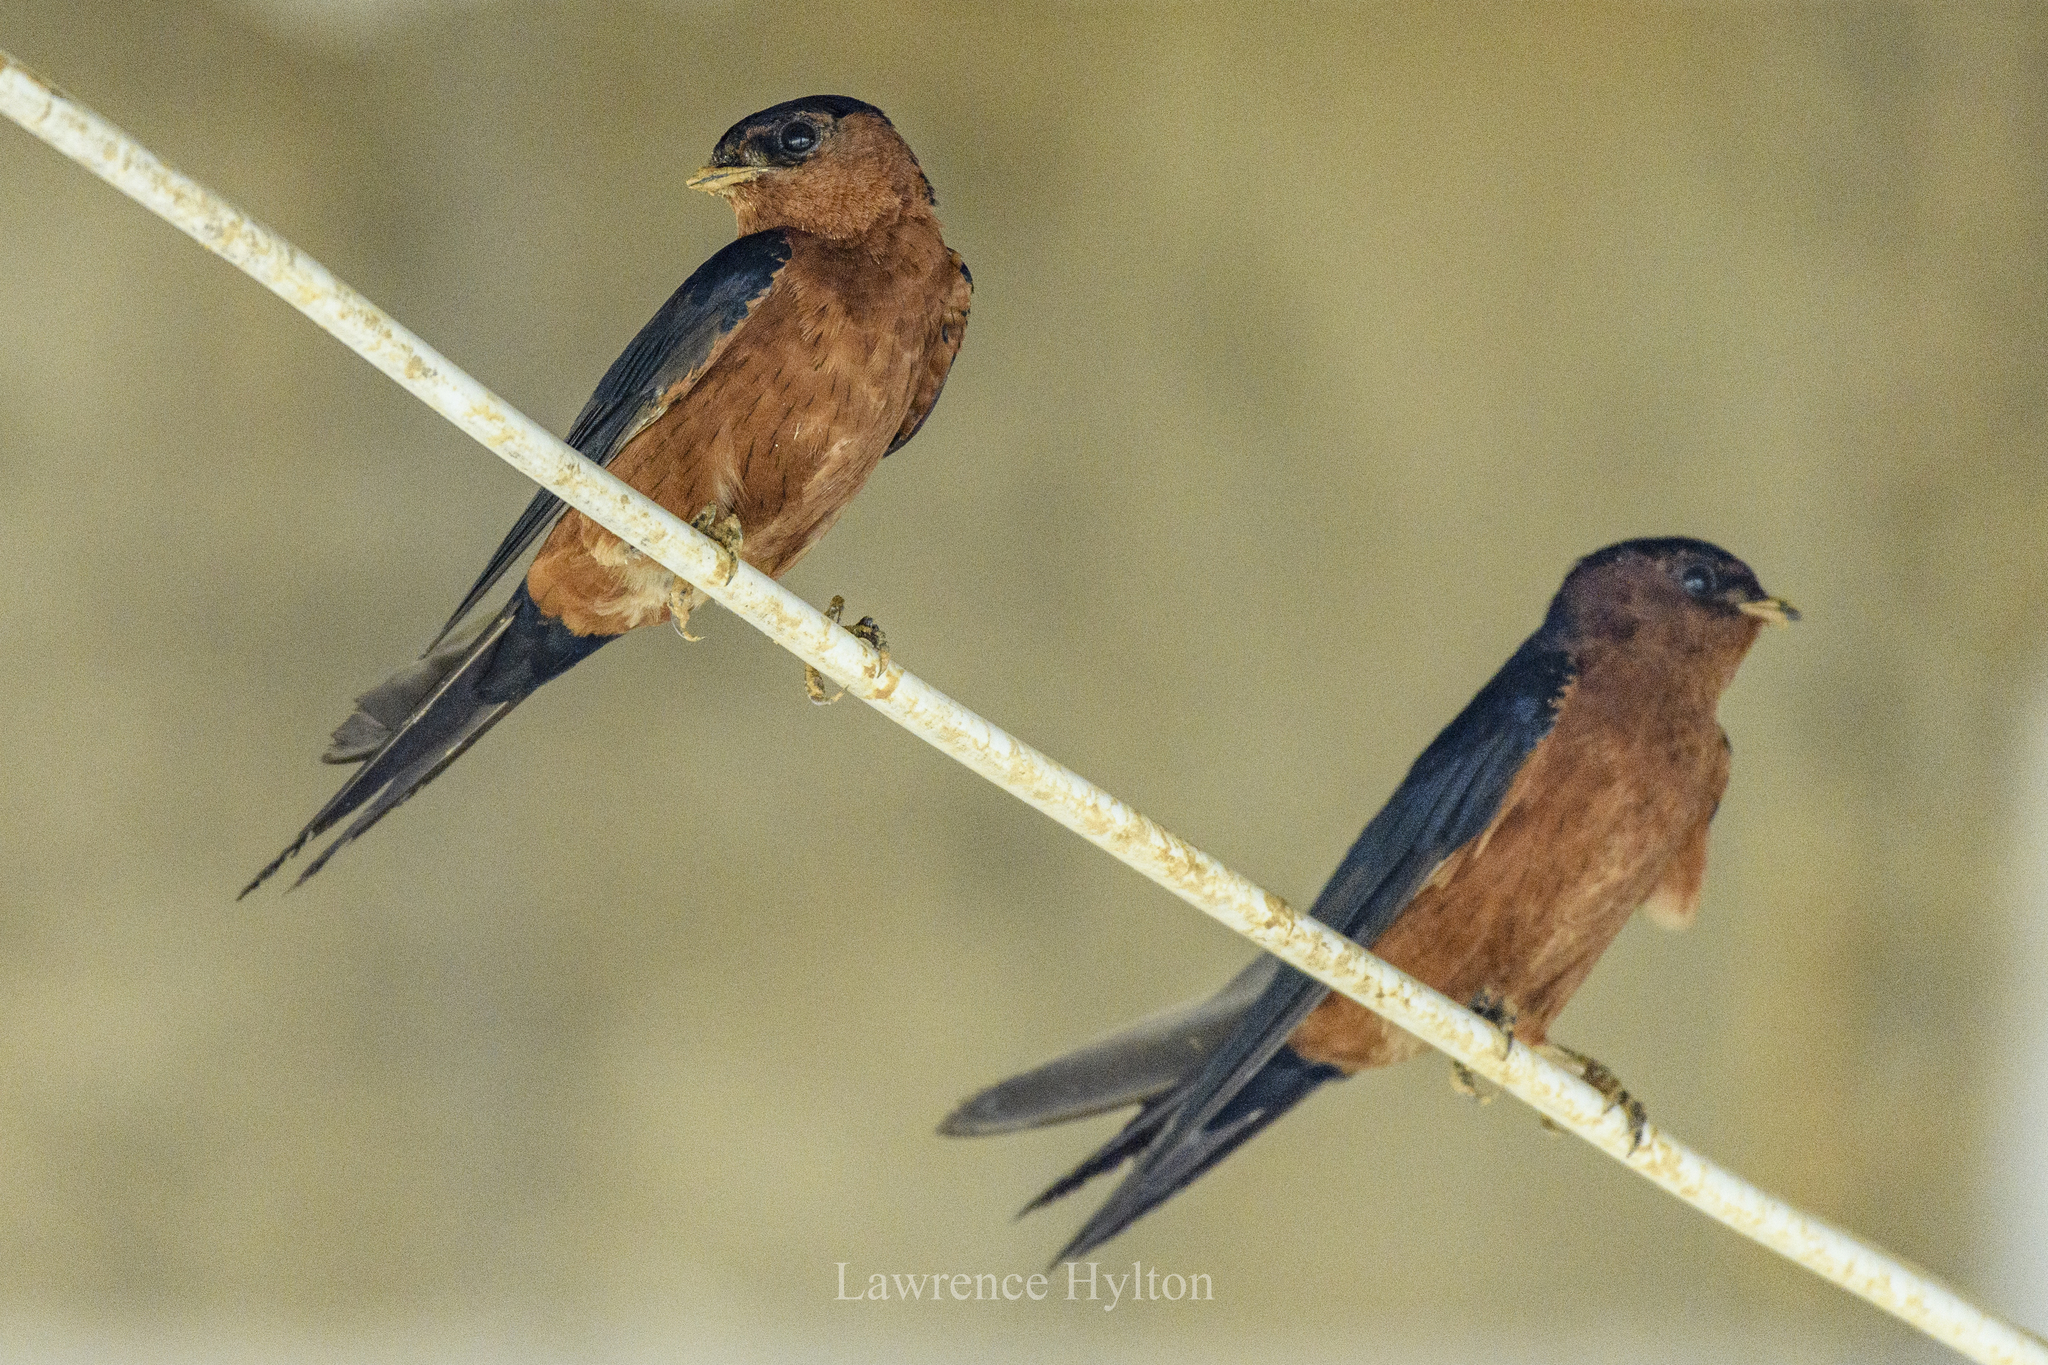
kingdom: Animalia
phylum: Chordata
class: Aves
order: Passeriformes
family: Hirundinidae
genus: Cecropis
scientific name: Cecropis badia
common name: Rufous-bellied swallow
